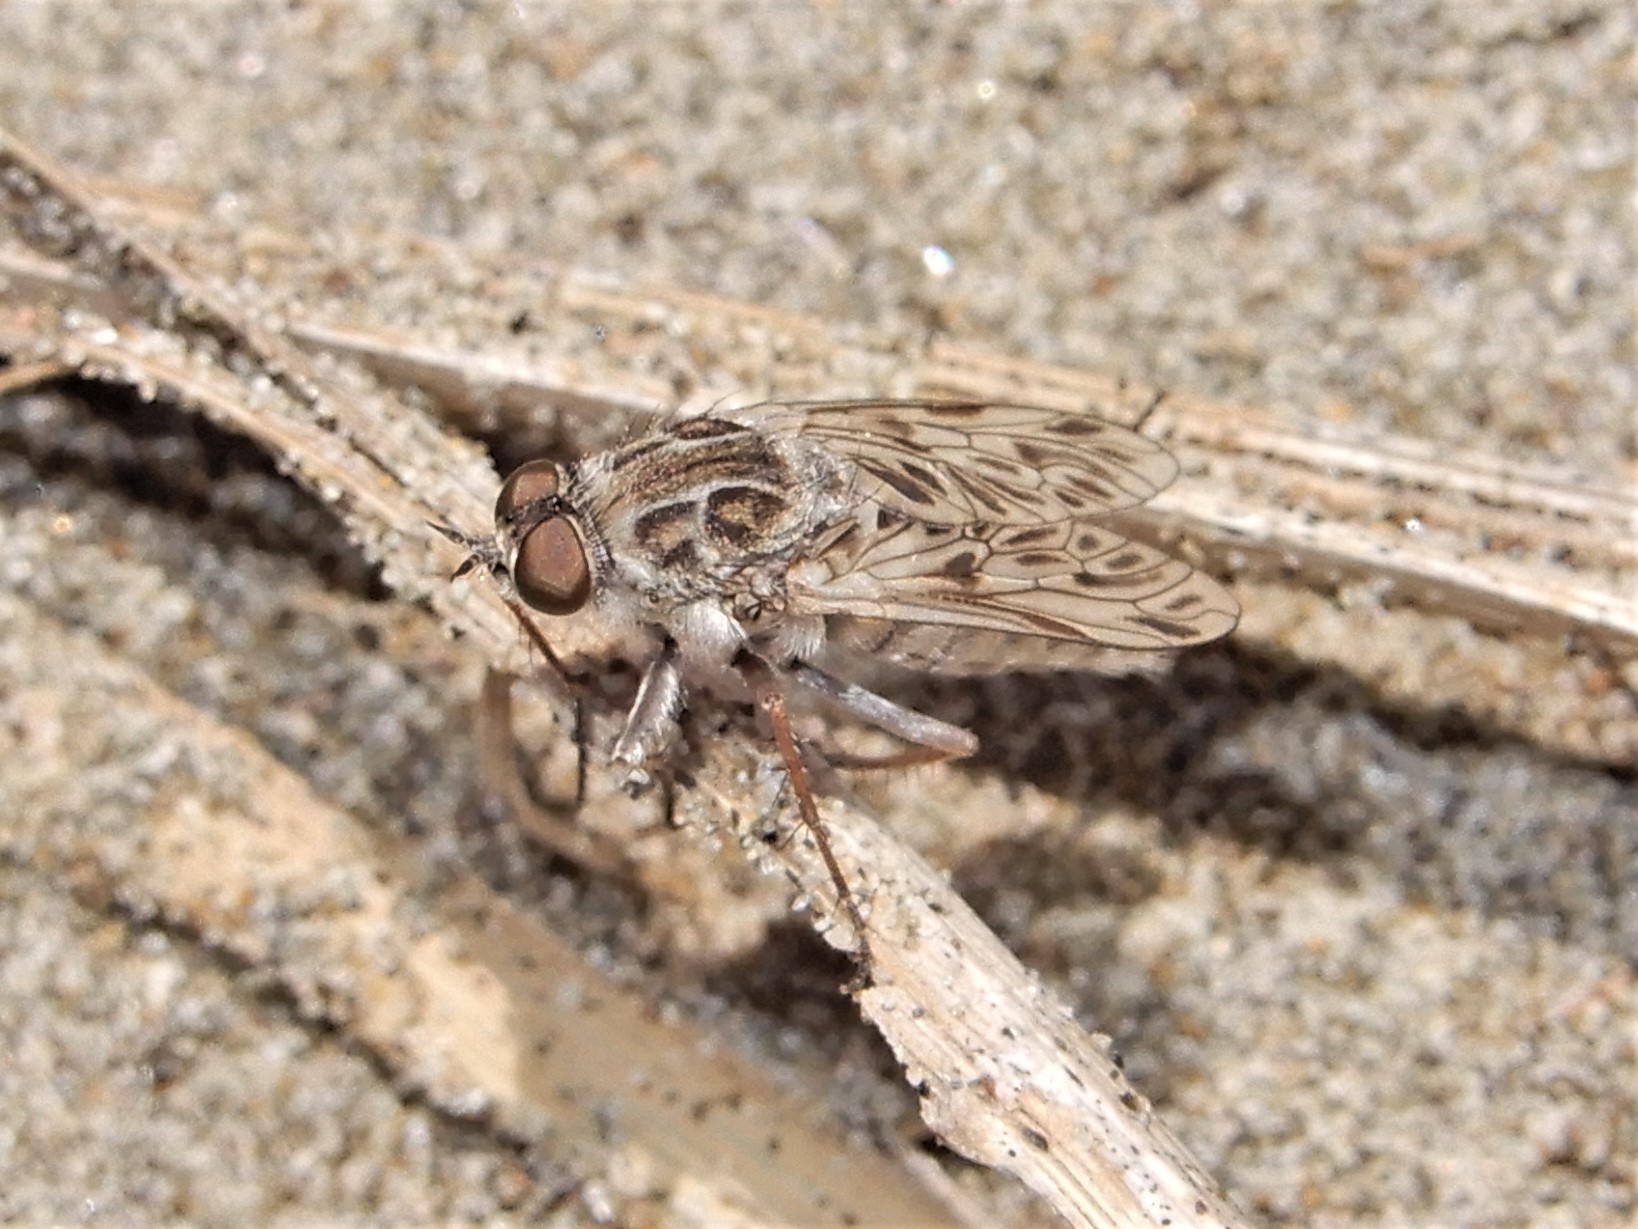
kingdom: Animalia
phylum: Arthropoda
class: Insecta
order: Diptera
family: Therevidae
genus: Anabarhynchus
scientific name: Anabarhynchus nebulosus
